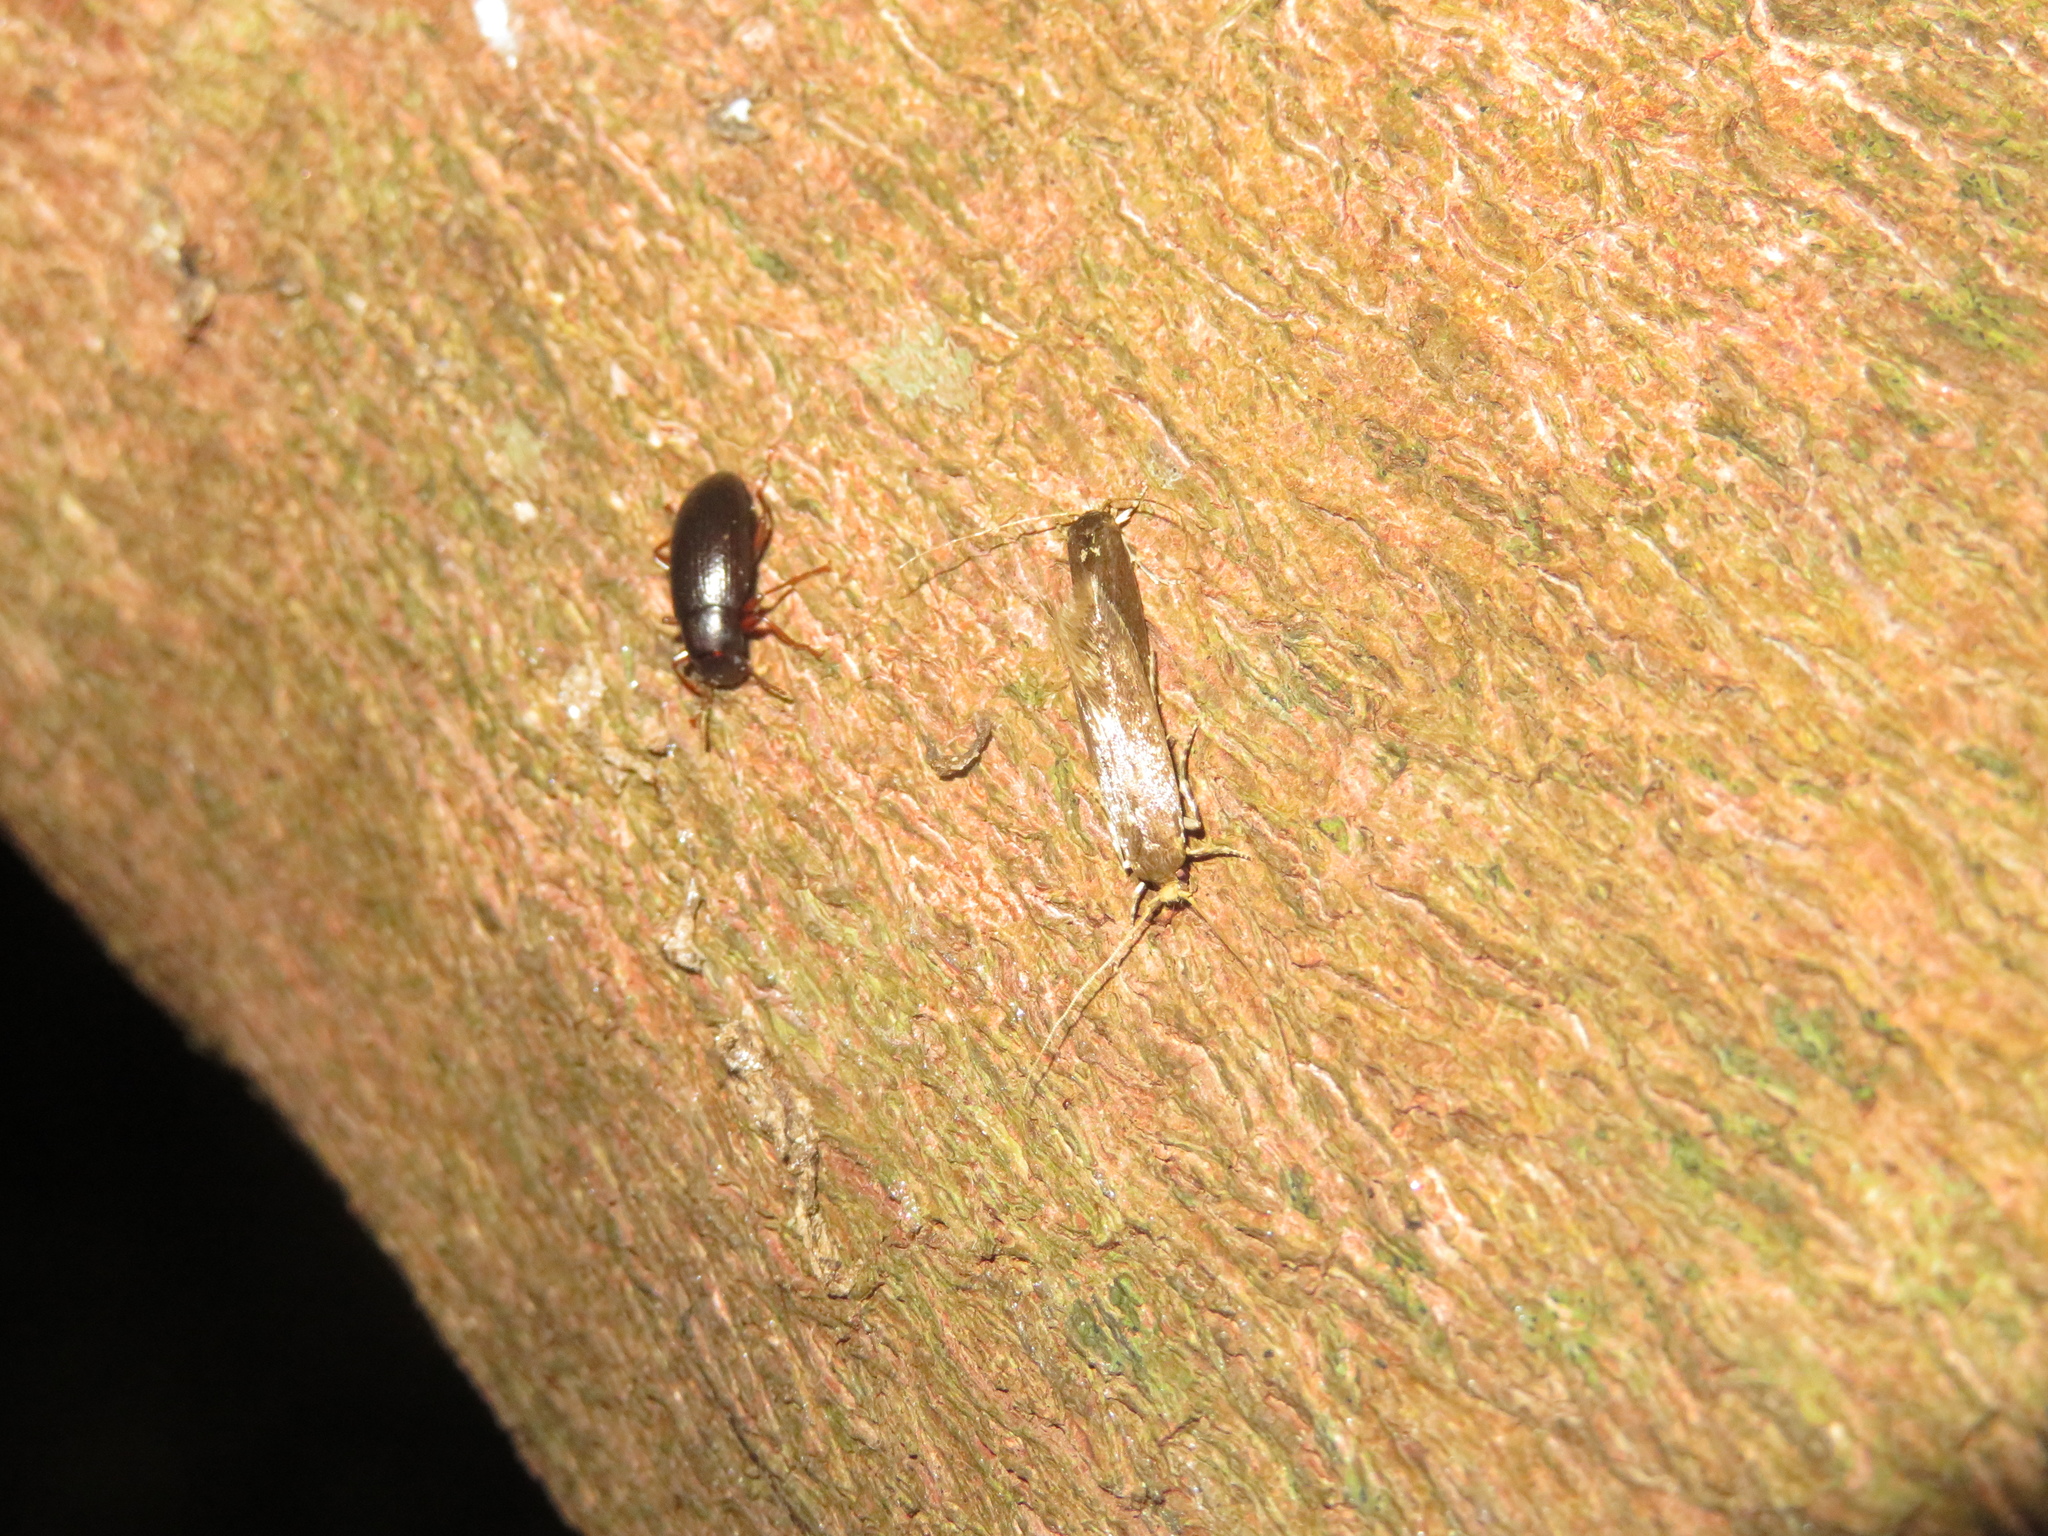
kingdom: Animalia
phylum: Arthropoda
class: Insecta
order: Lepidoptera
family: Tineidae
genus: Opogona
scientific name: Opogona omoscopa
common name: Moth
